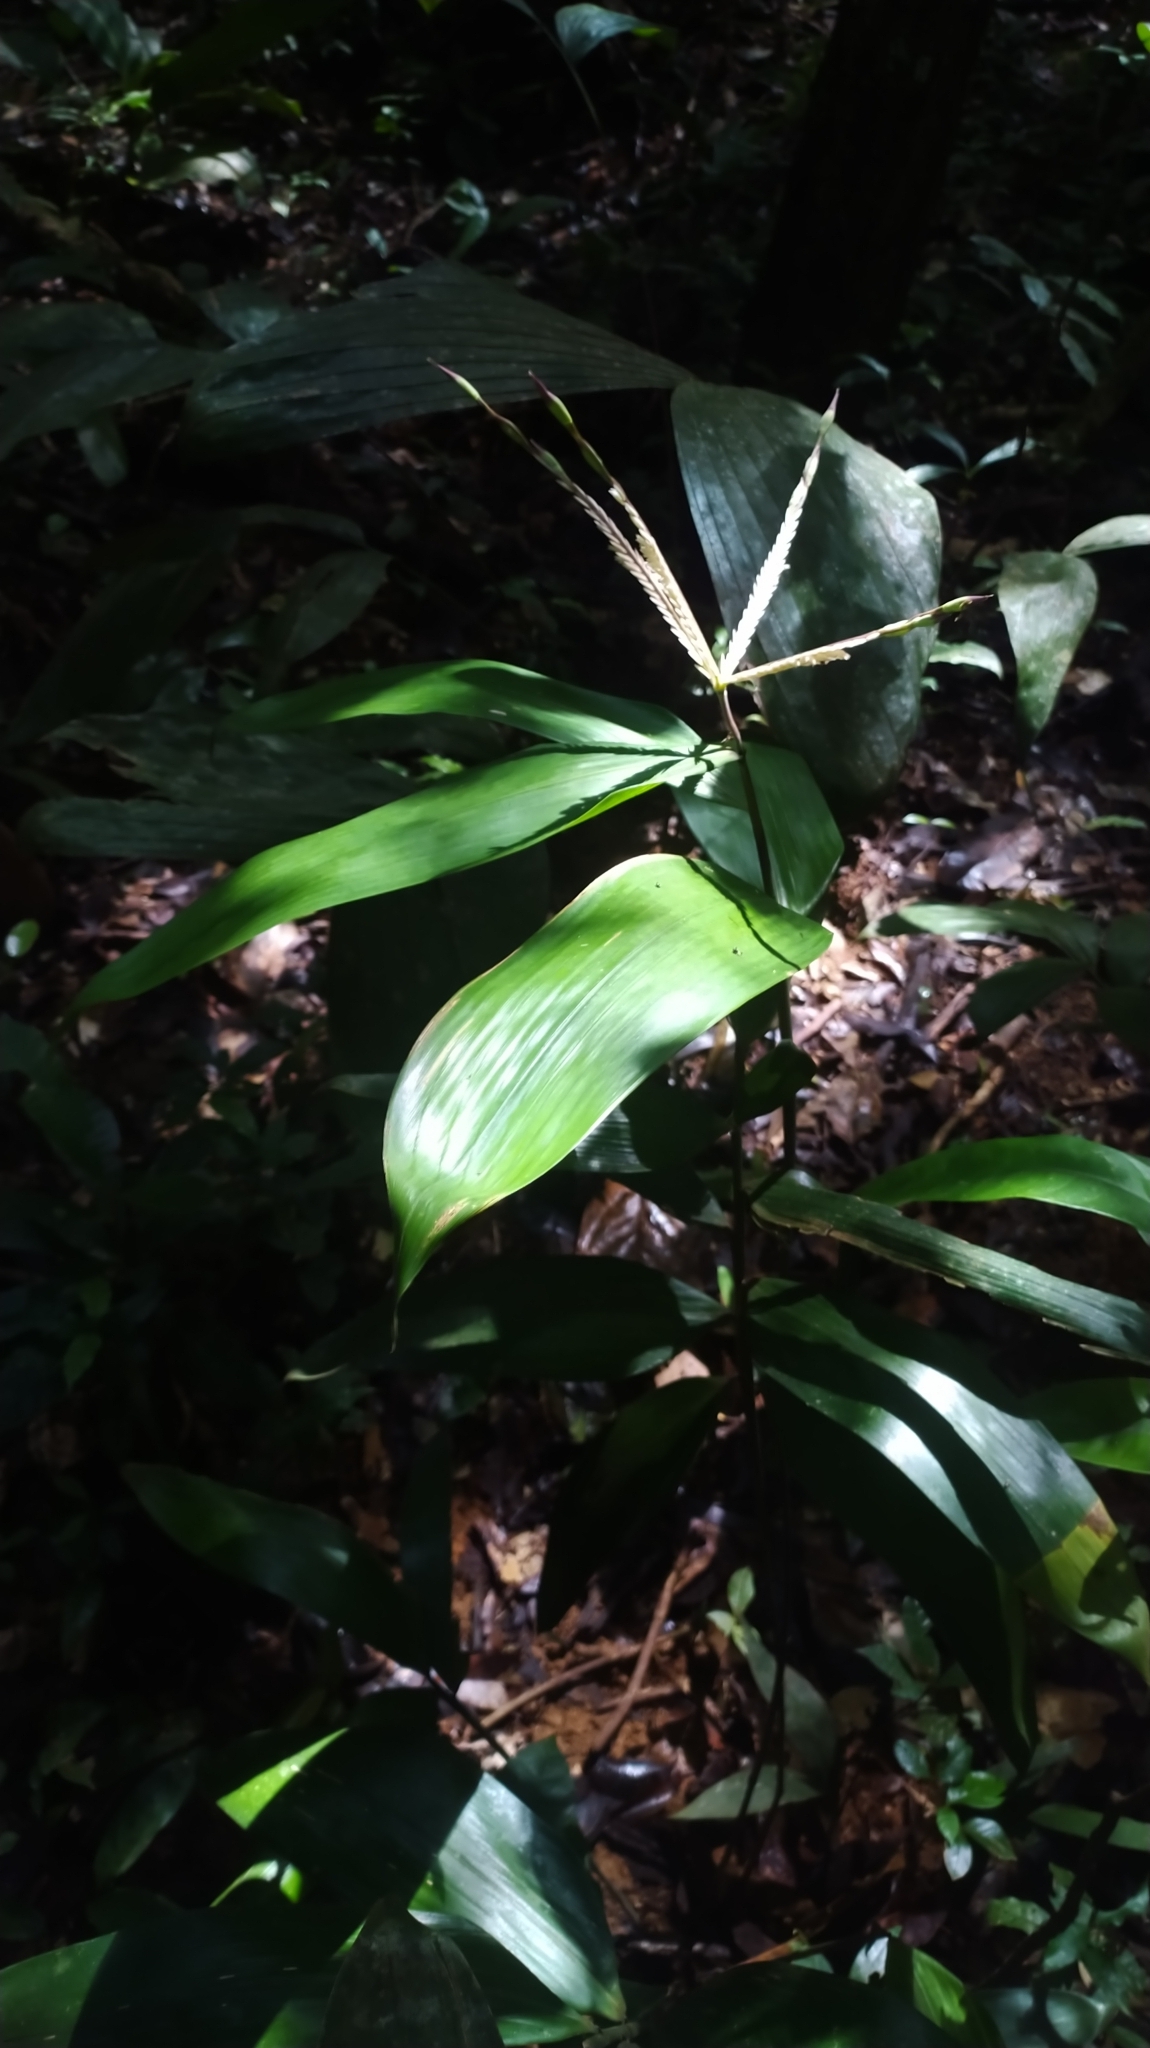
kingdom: Plantae
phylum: Tracheophyta
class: Liliopsida
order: Poales
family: Poaceae
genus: Olyra
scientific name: Olyra obliquifolia
